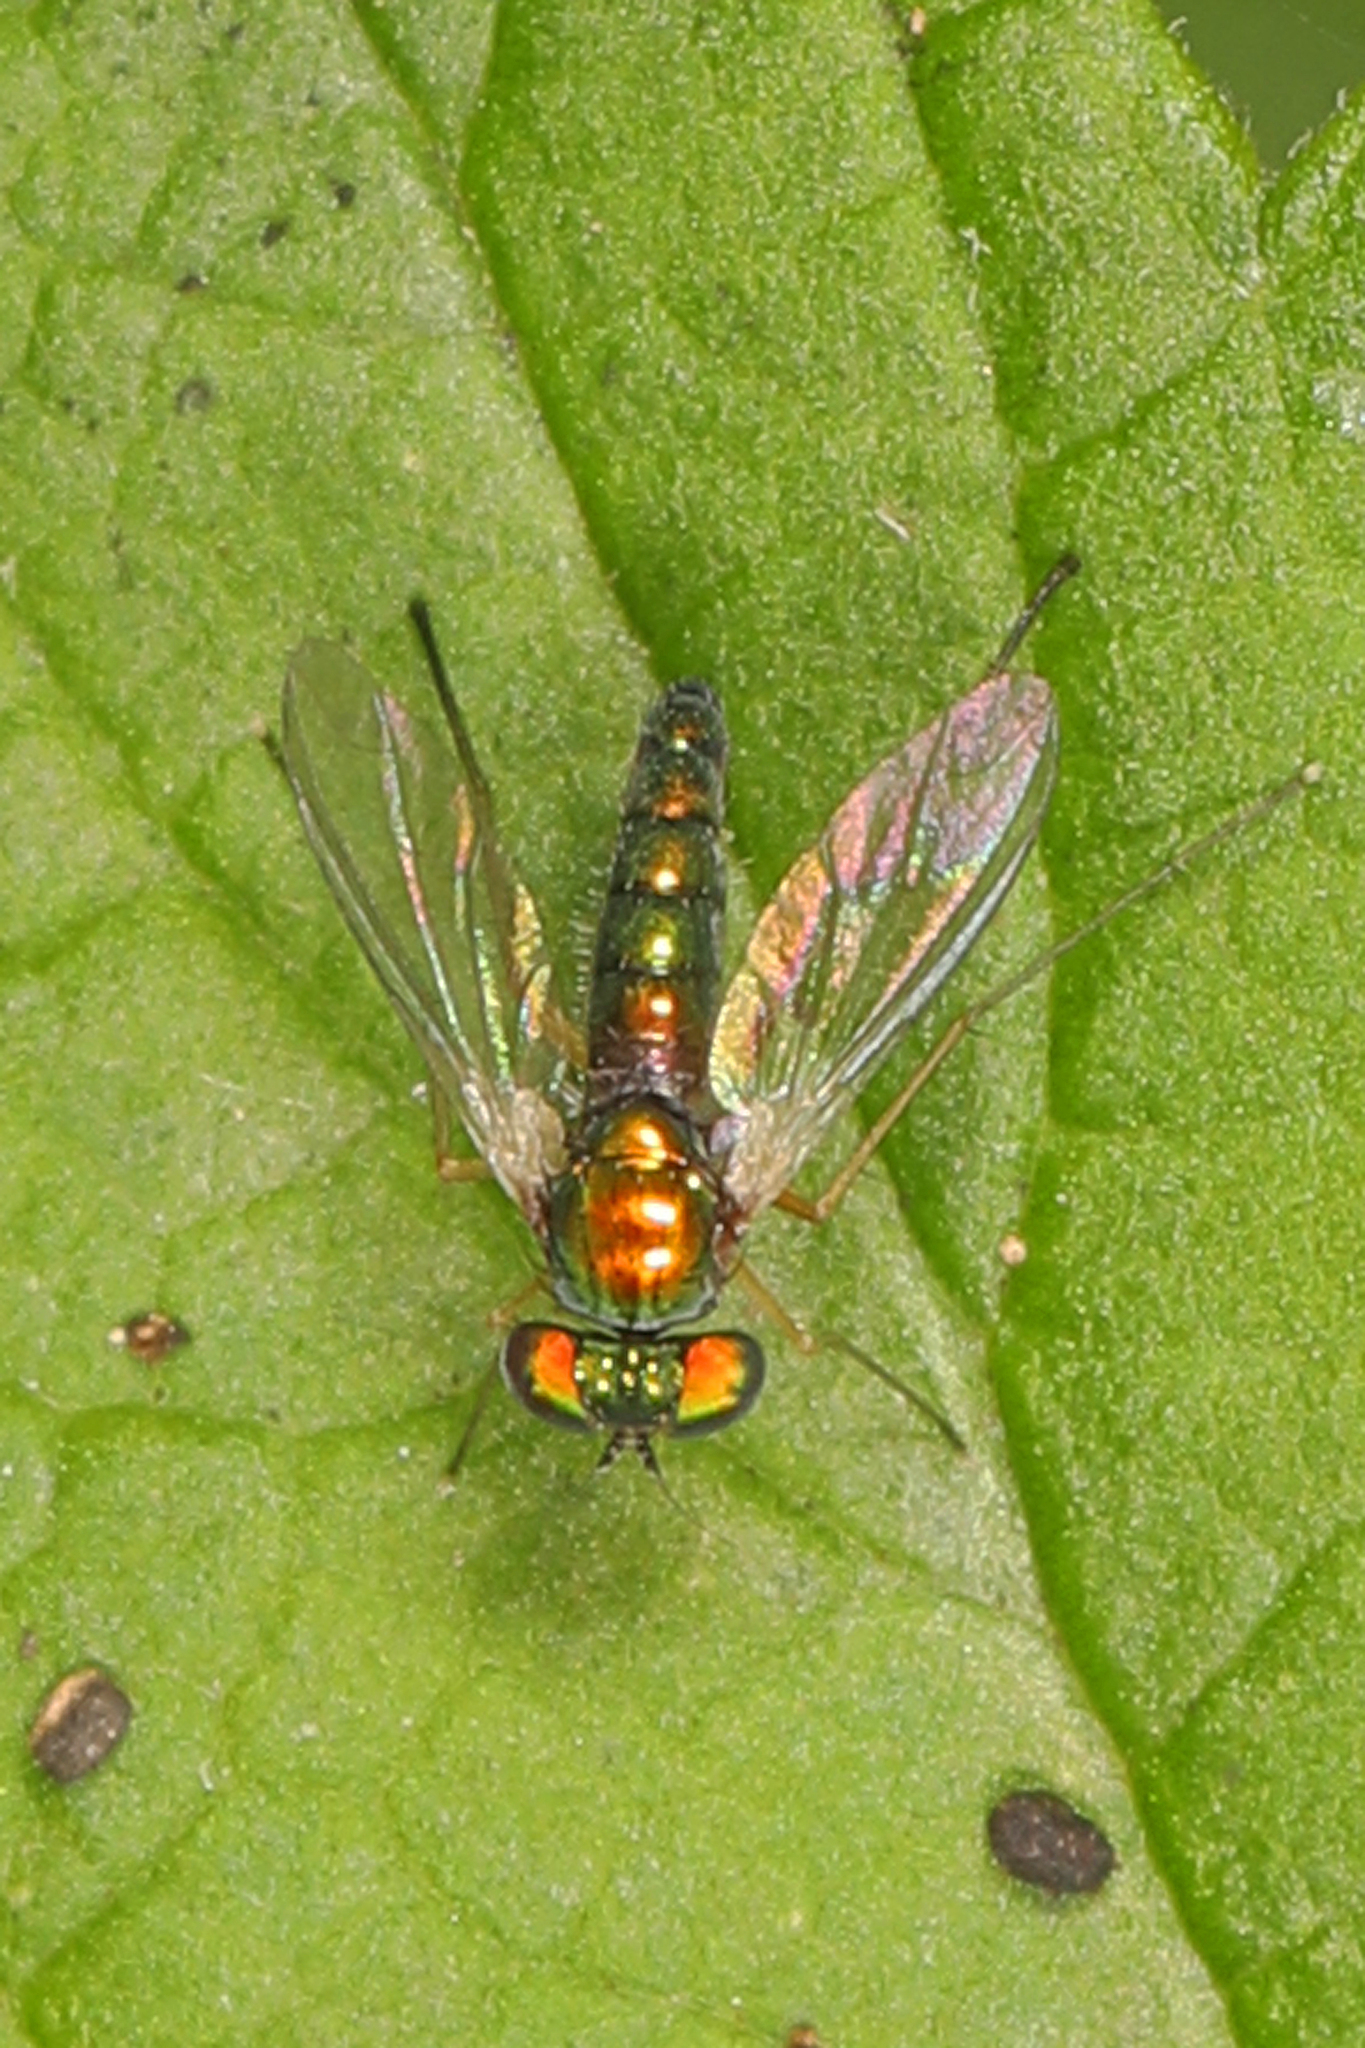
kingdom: Animalia
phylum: Arthropoda
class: Insecta
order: Diptera
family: Dolichopodidae
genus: Condylostylus
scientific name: Condylostylus banksii
